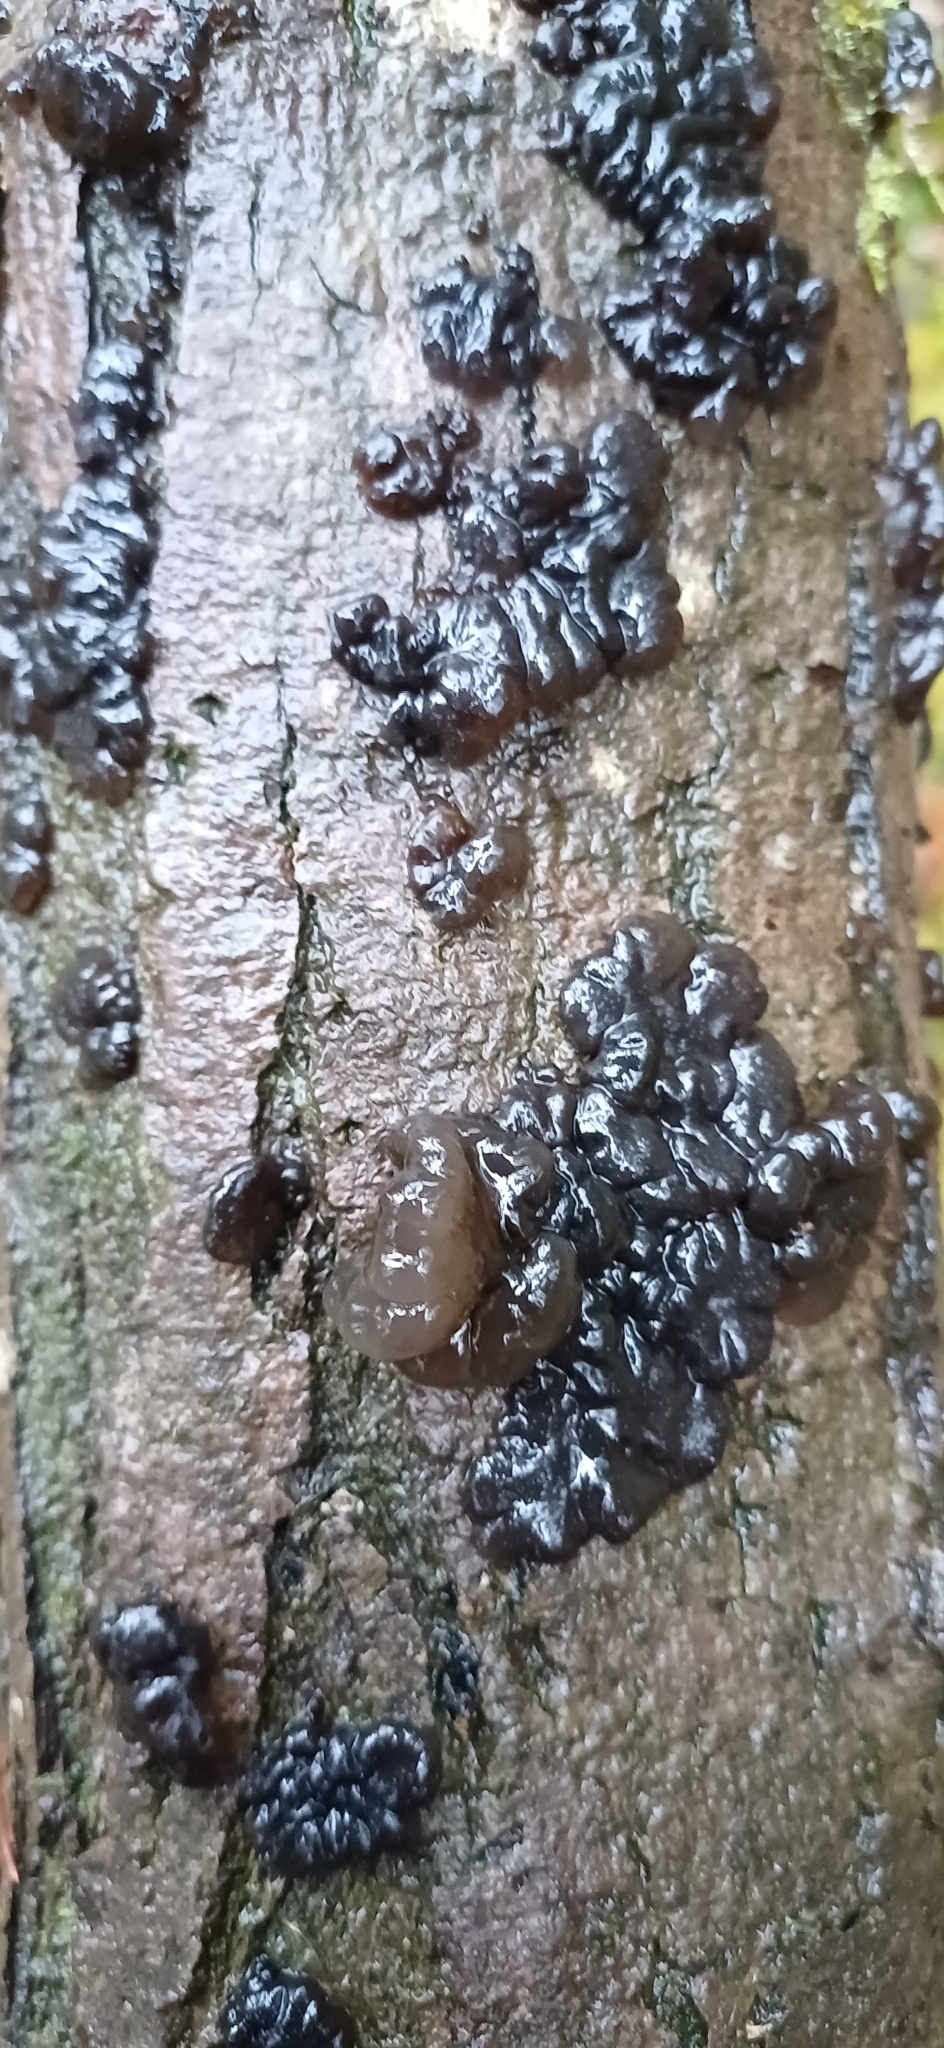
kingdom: Fungi
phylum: Basidiomycota
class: Agaricomycetes
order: Auriculariales
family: Auriculariaceae
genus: Exidia
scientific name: Exidia nigricans
